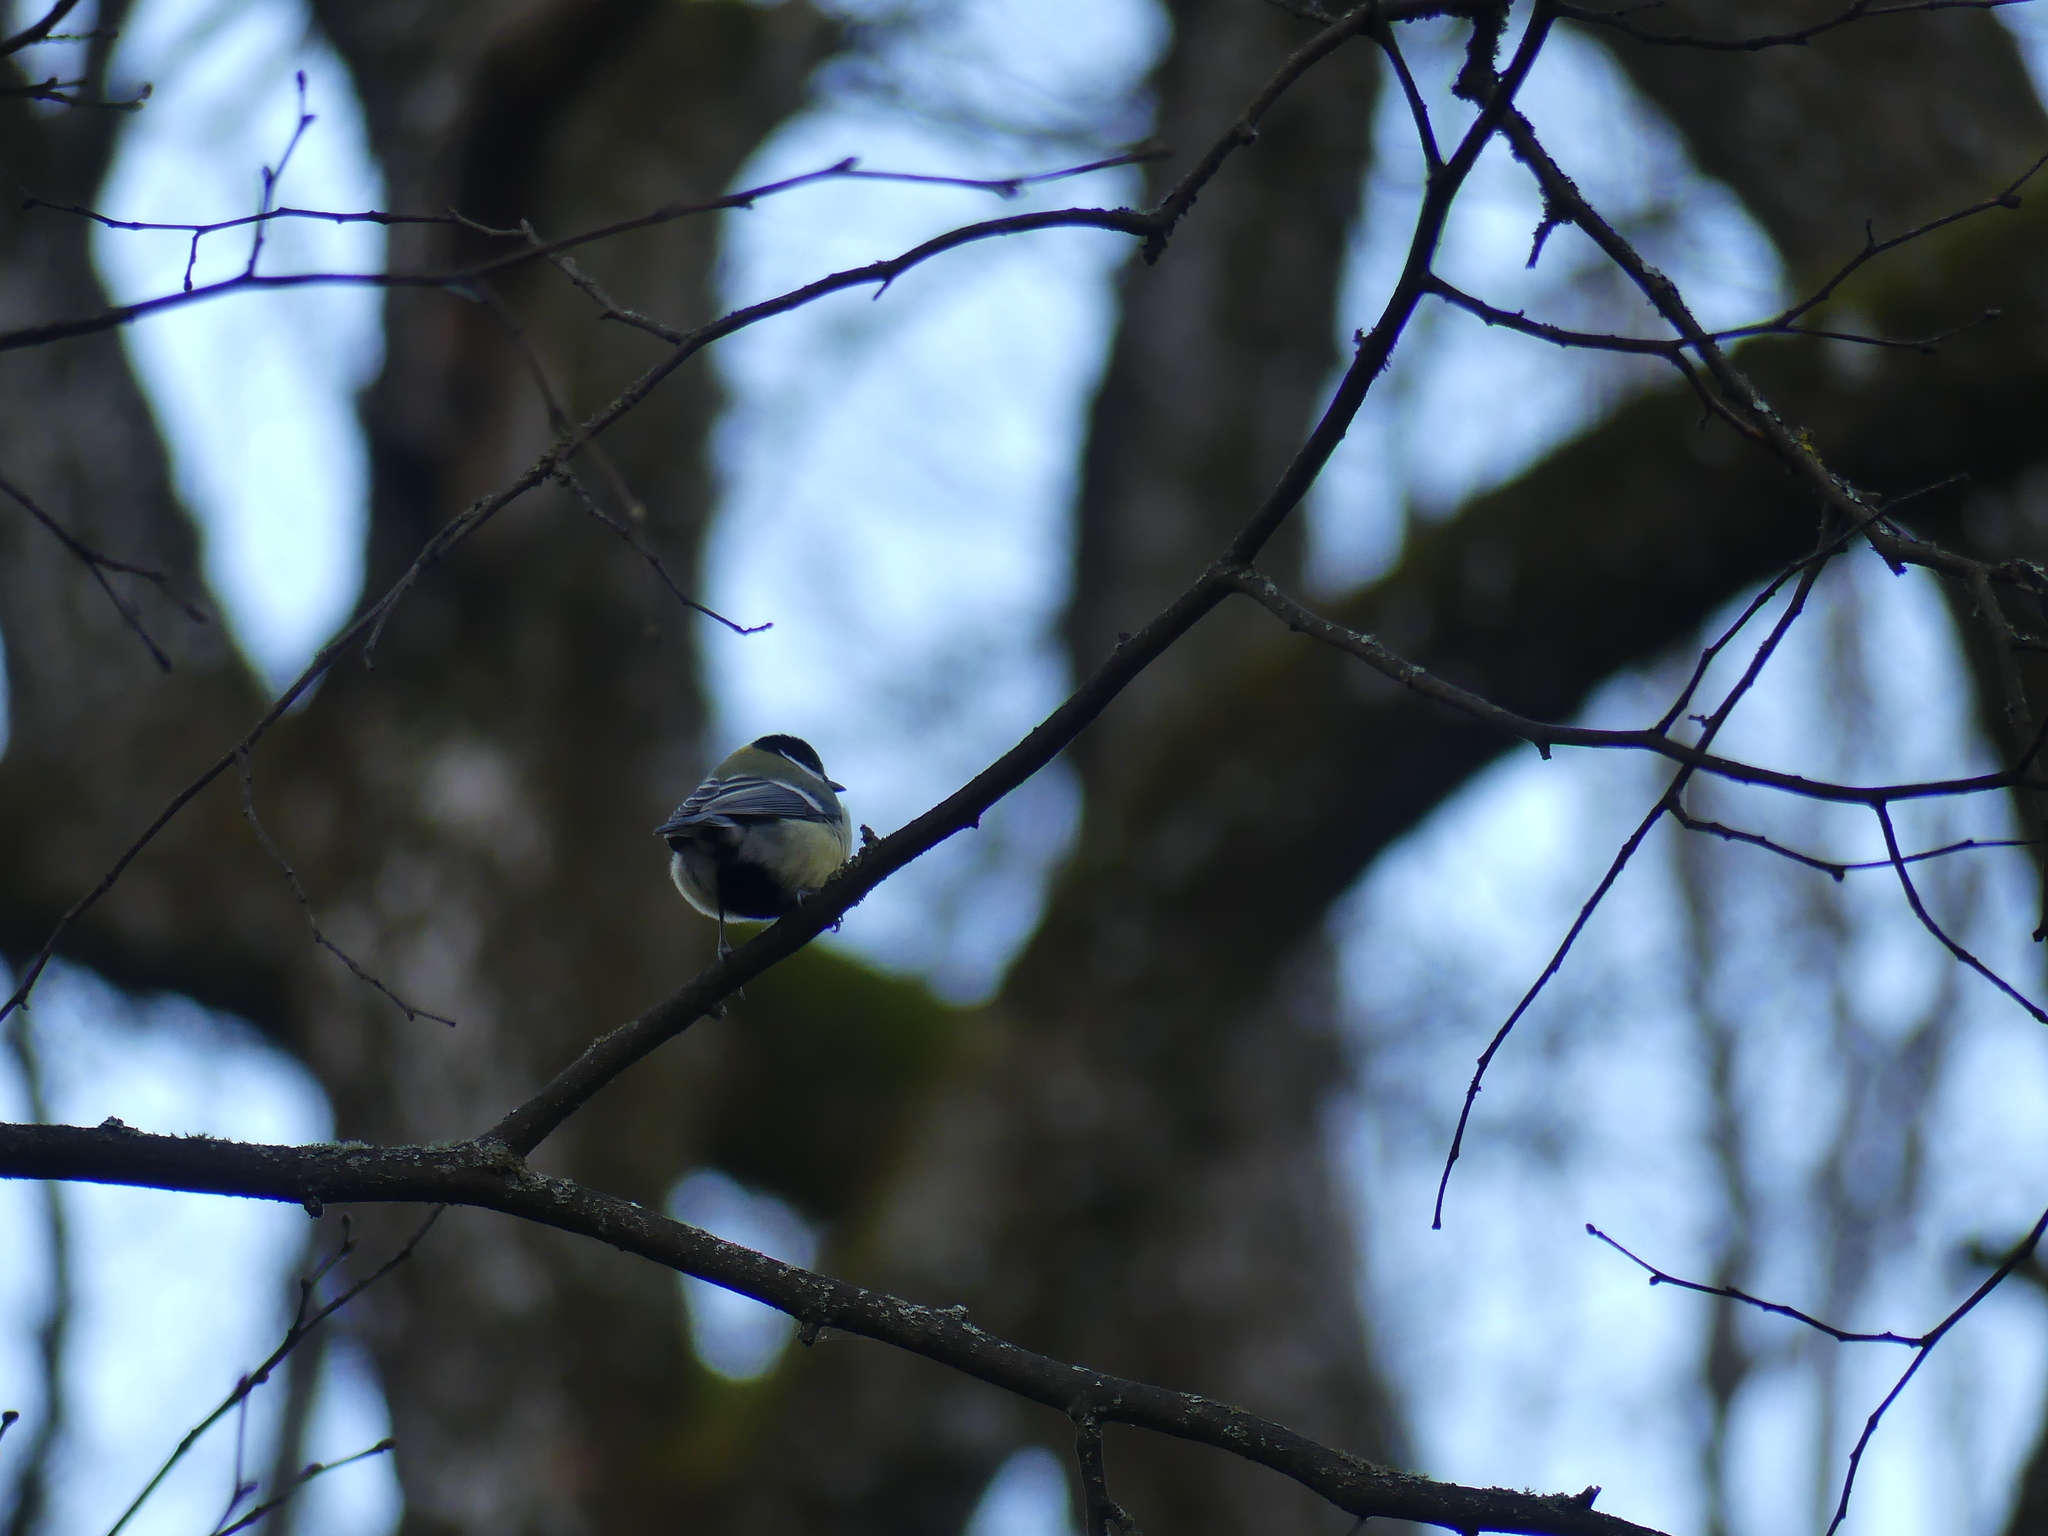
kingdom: Animalia
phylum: Chordata
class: Aves
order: Passeriformes
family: Paridae
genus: Parus
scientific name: Parus major
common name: Great tit
